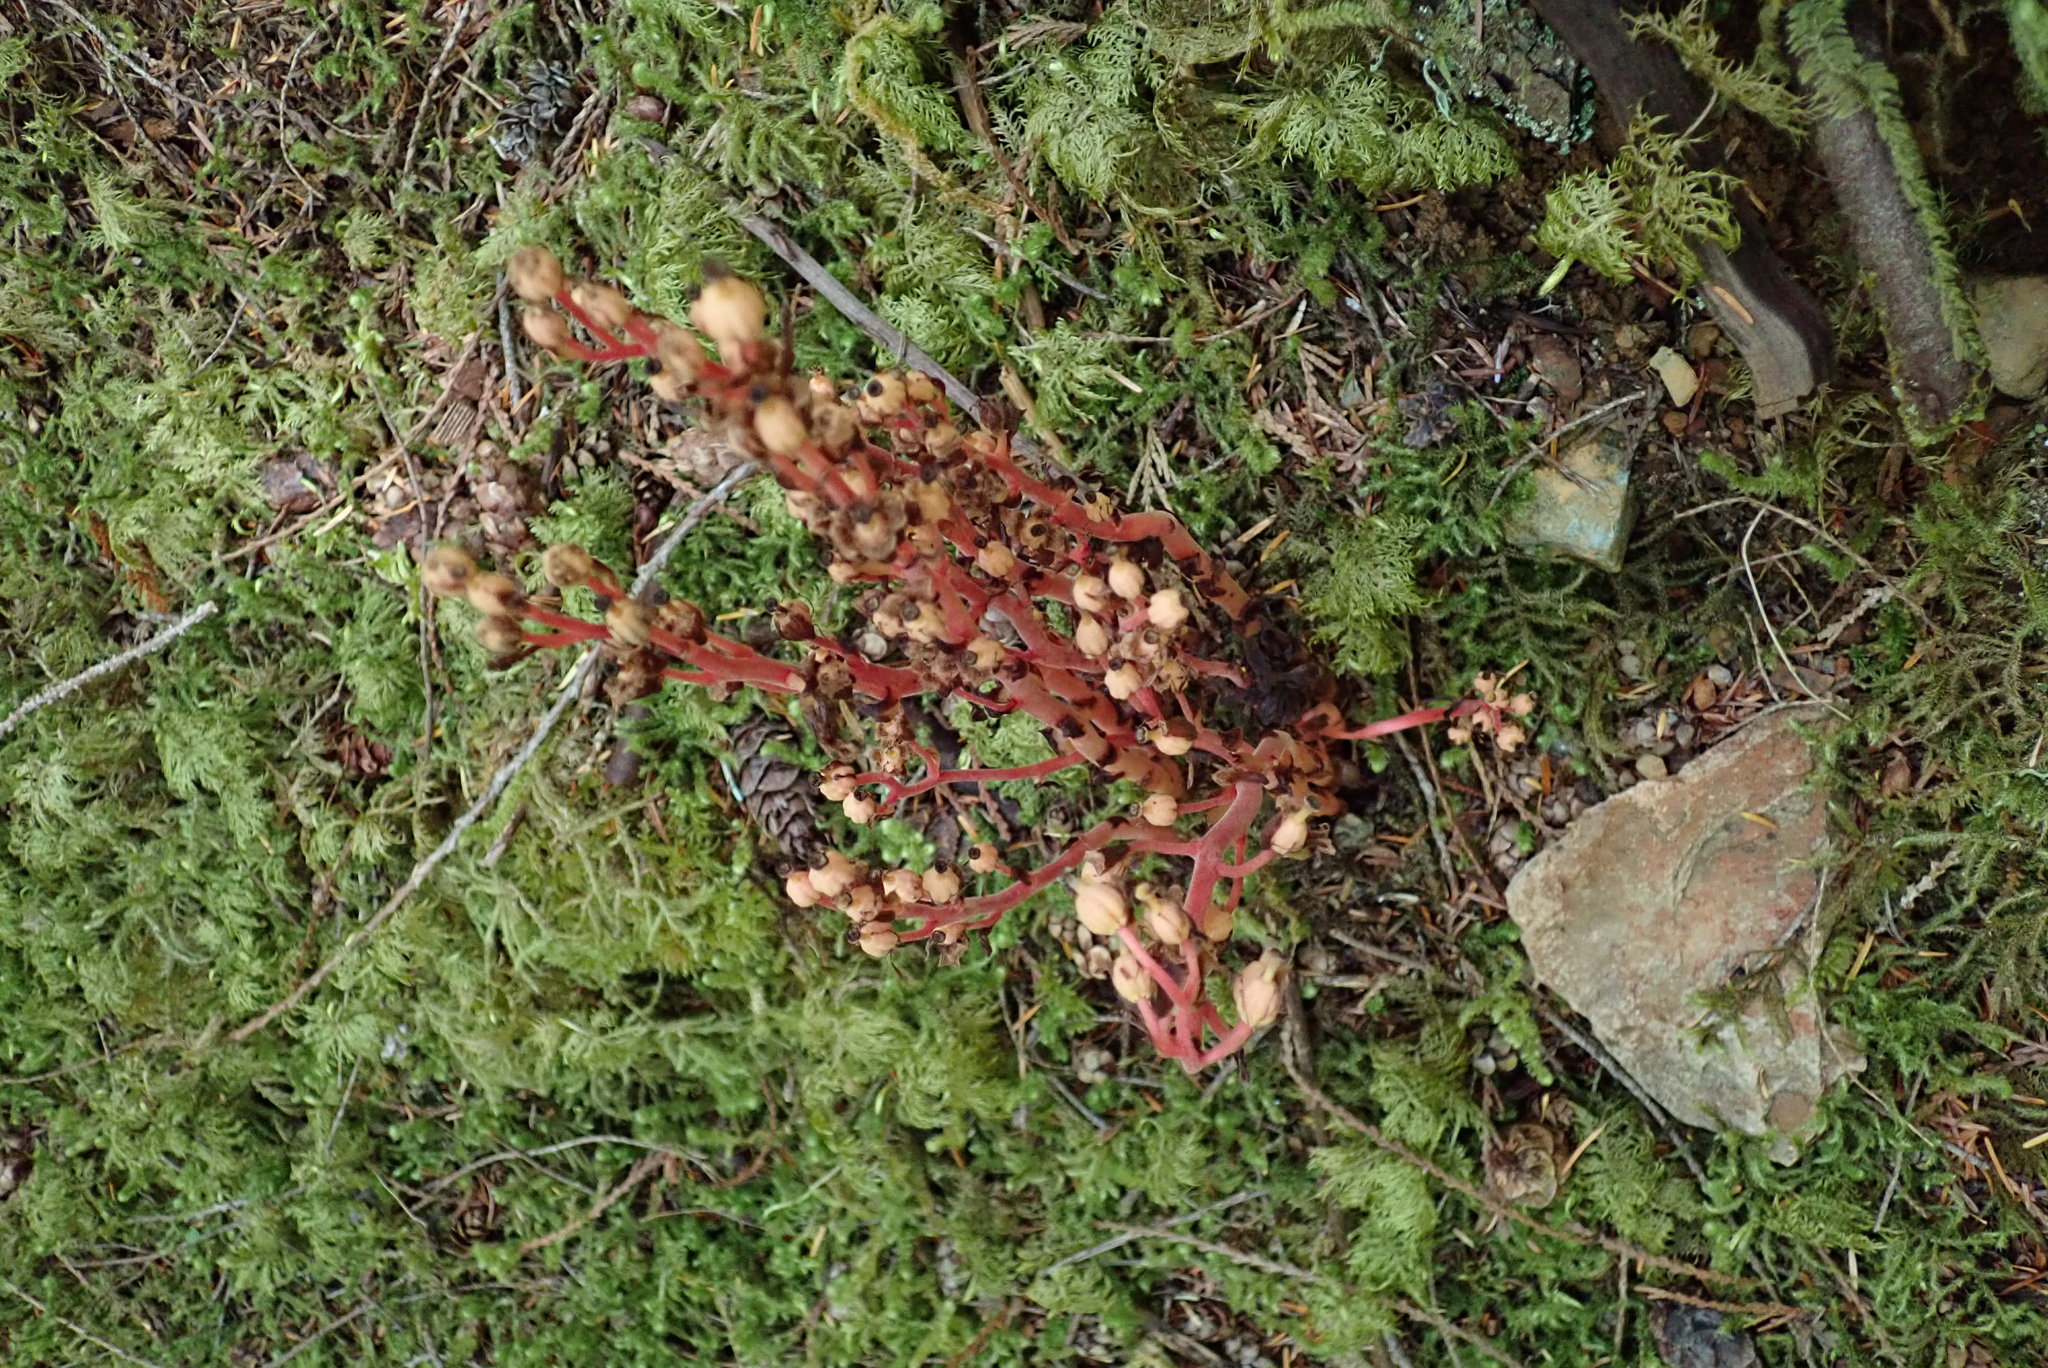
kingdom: Plantae
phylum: Tracheophyta
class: Magnoliopsida
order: Ericales
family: Ericaceae
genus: Hypopitys
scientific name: Hypopitys monotropa
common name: Yellow bird's-nest
